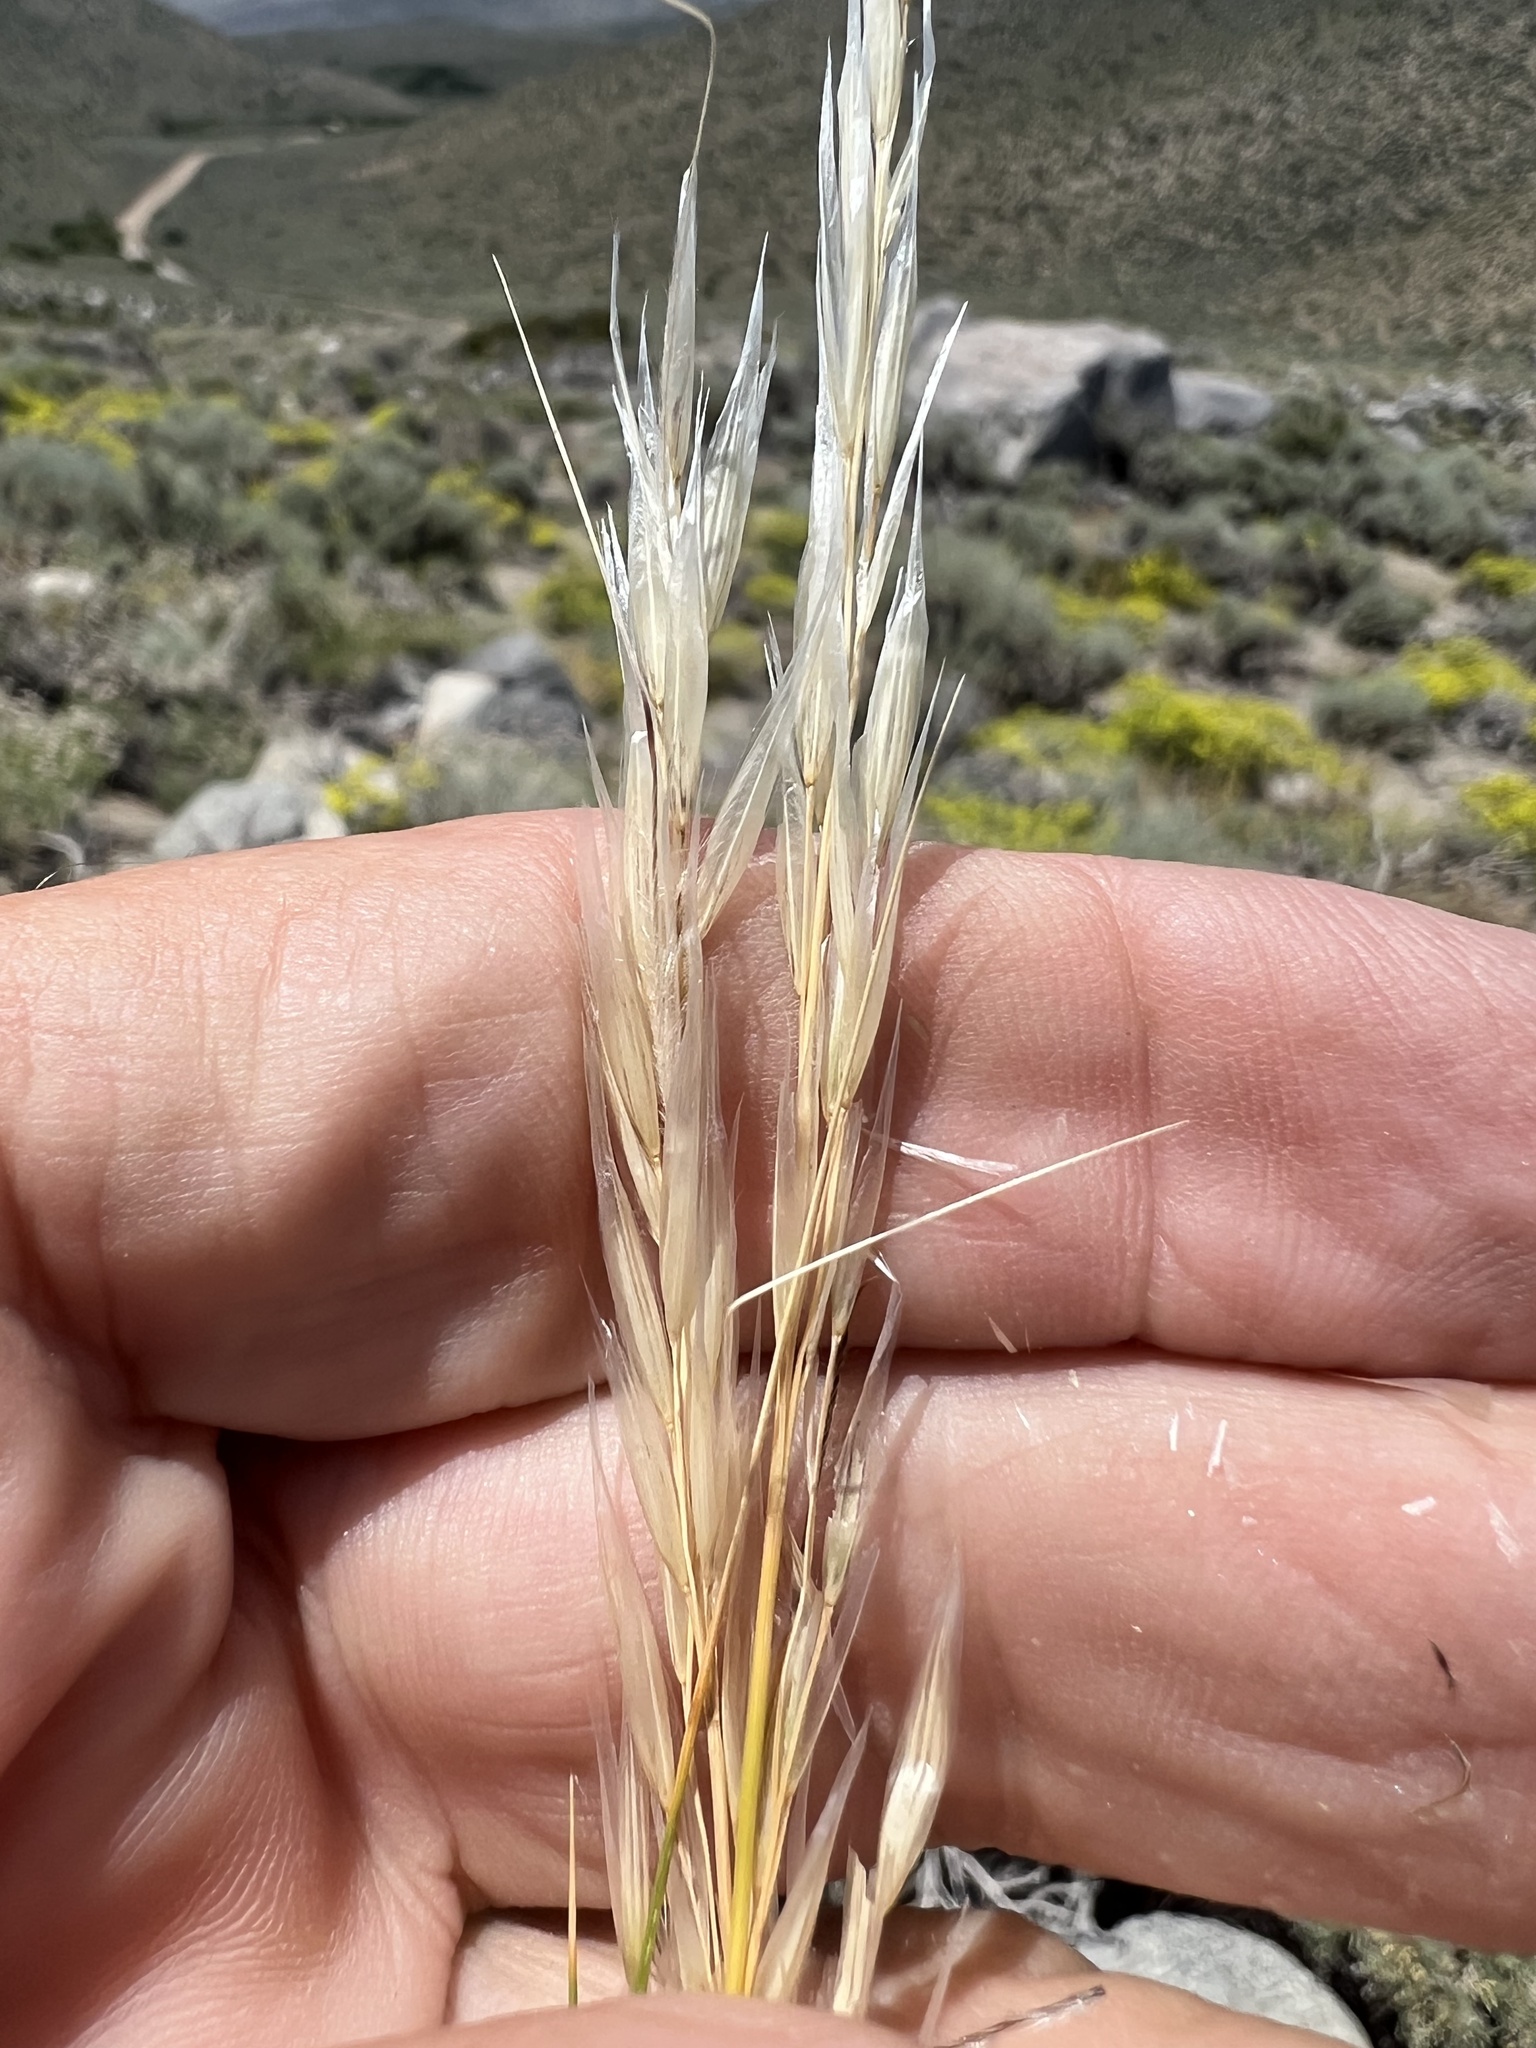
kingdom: Plantae
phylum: Tracheophyta
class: Liliopsida
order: Poales
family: Poaceae
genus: Pappostipa
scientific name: Pappostipa speciosa
